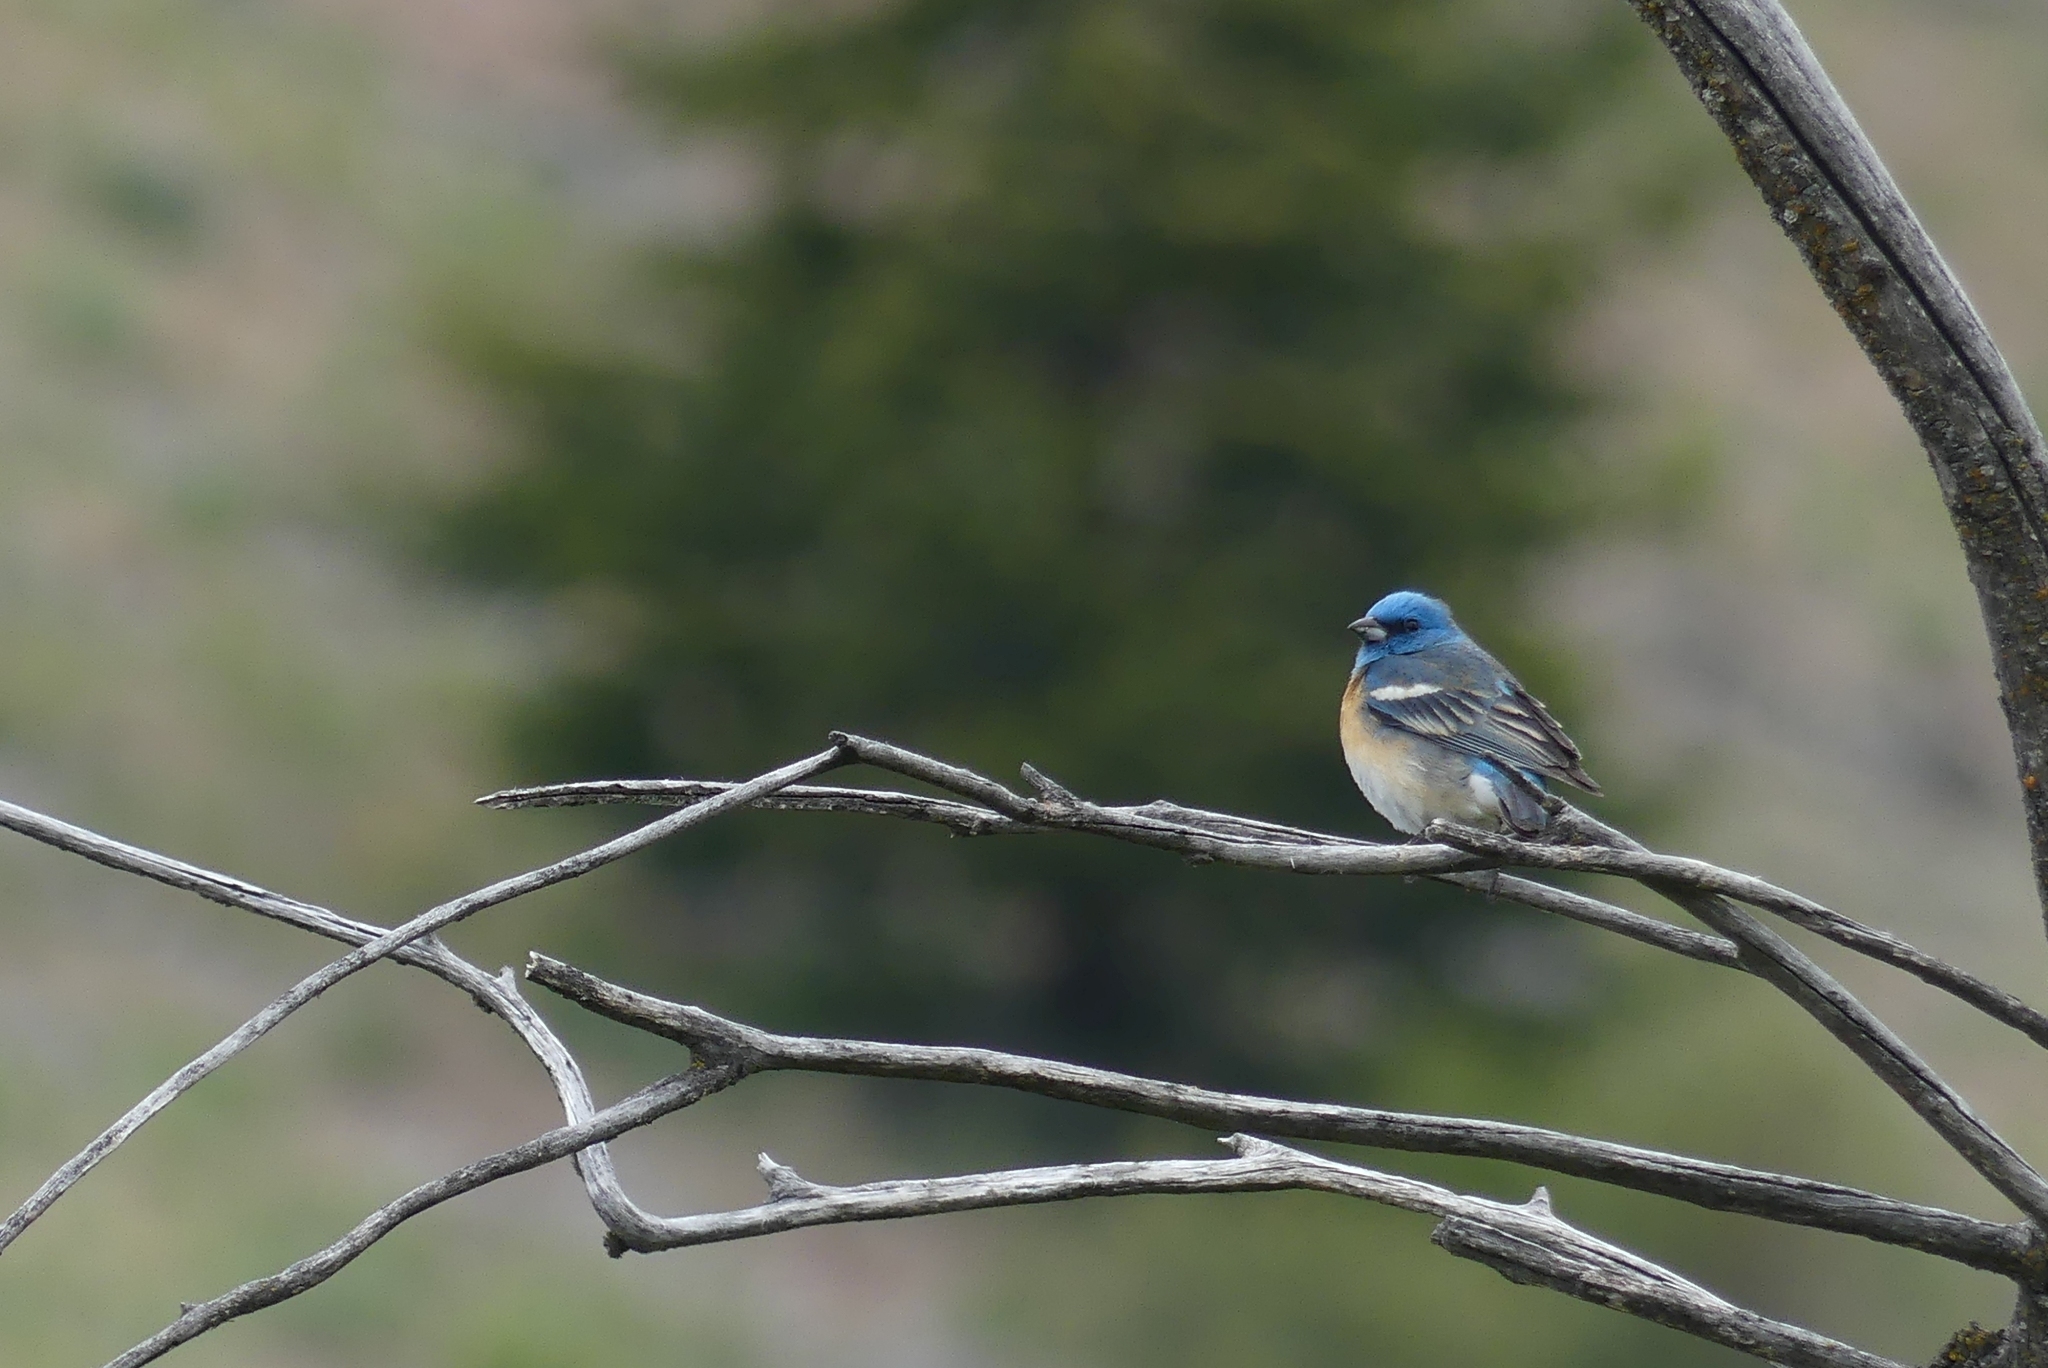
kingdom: Animalia
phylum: Chordata
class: Aves
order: Passeriformes
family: Cardinalidae
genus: Passerina
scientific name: Passerina amoena
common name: Lazuli bunting
